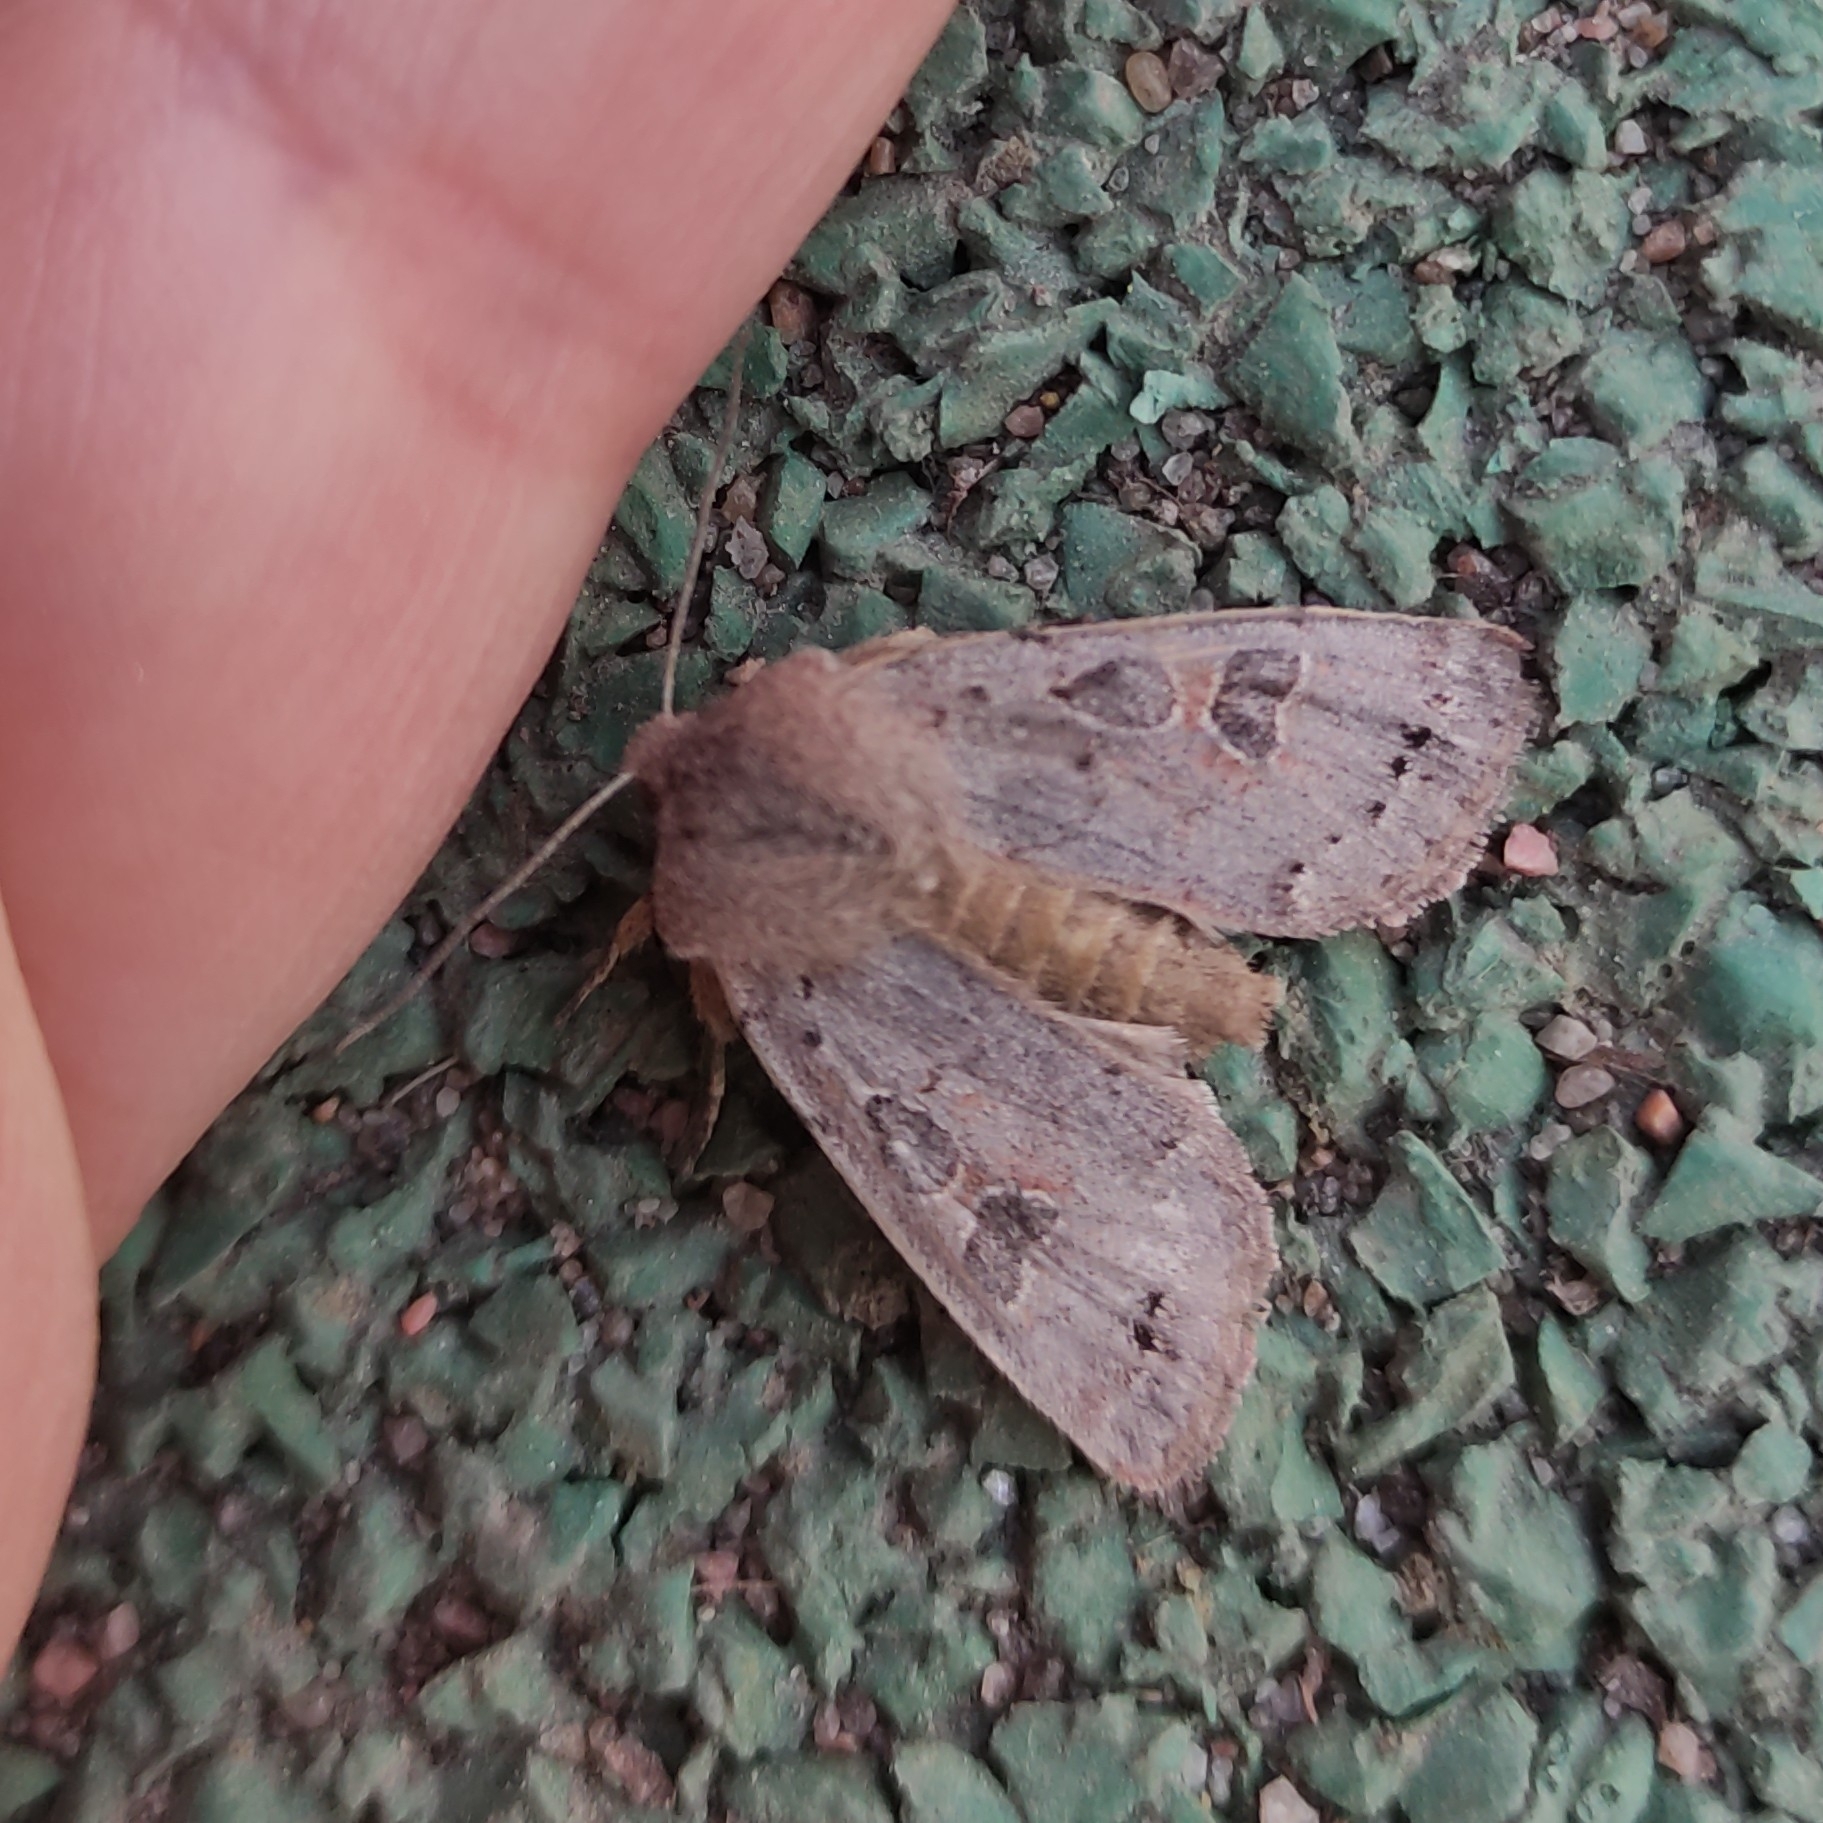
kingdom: Animalia
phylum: Arthropoda
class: Insecta
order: Lepidoptera
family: Noctuidae
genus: Orthosia
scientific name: Orthosia populeti
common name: Lead-coloured drab
